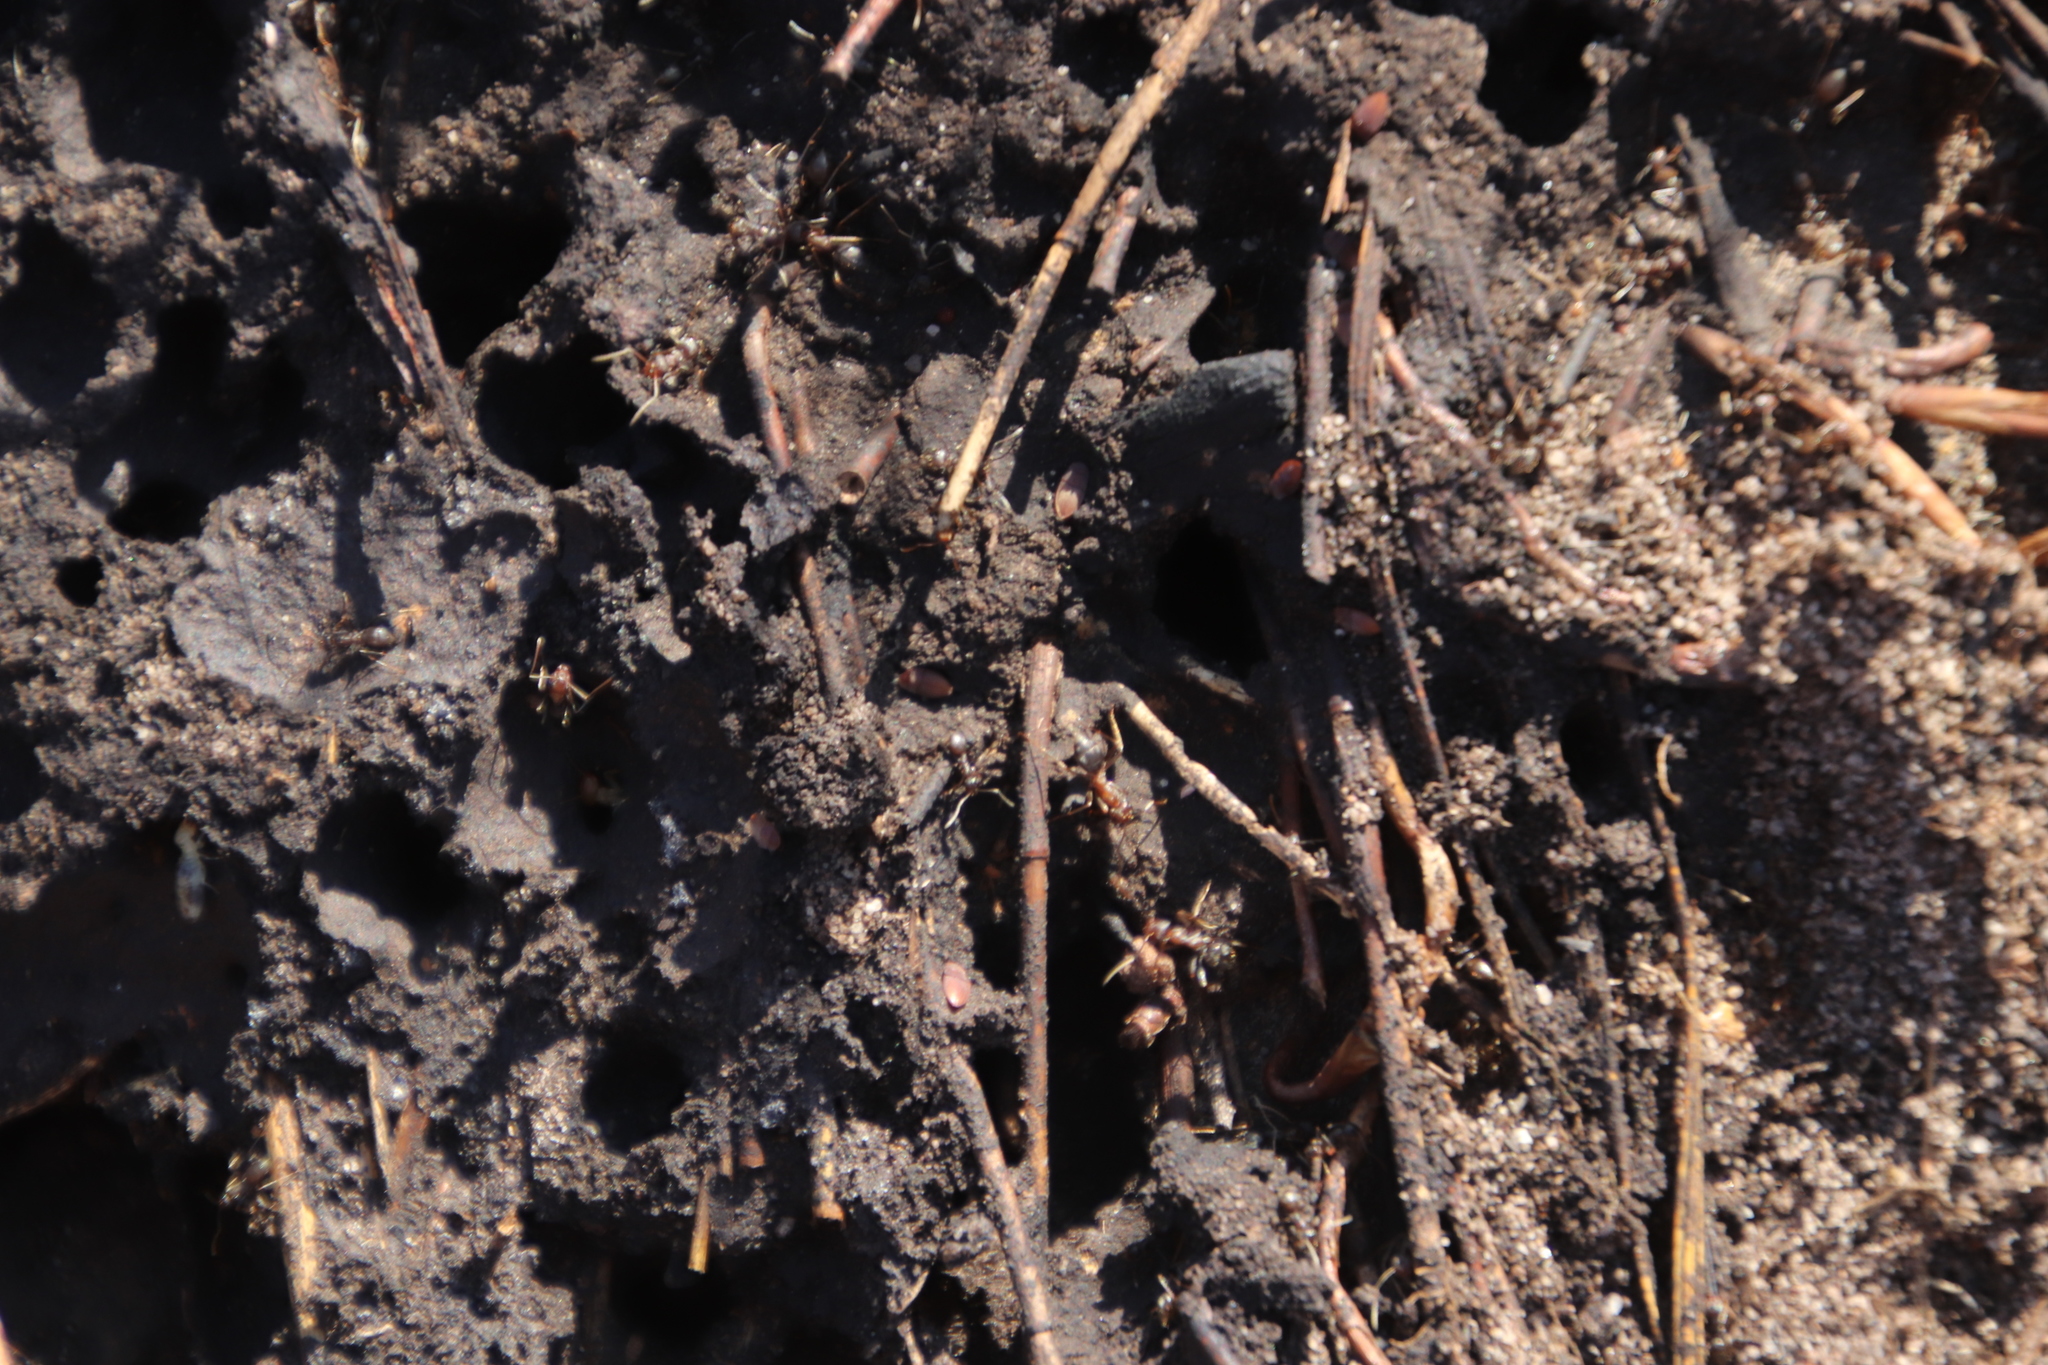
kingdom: Animalia
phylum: Arthropoda
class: Insecta
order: Hymenoptera
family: Formicidae
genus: Anoplolepis
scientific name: Anoplolepis custodiens
